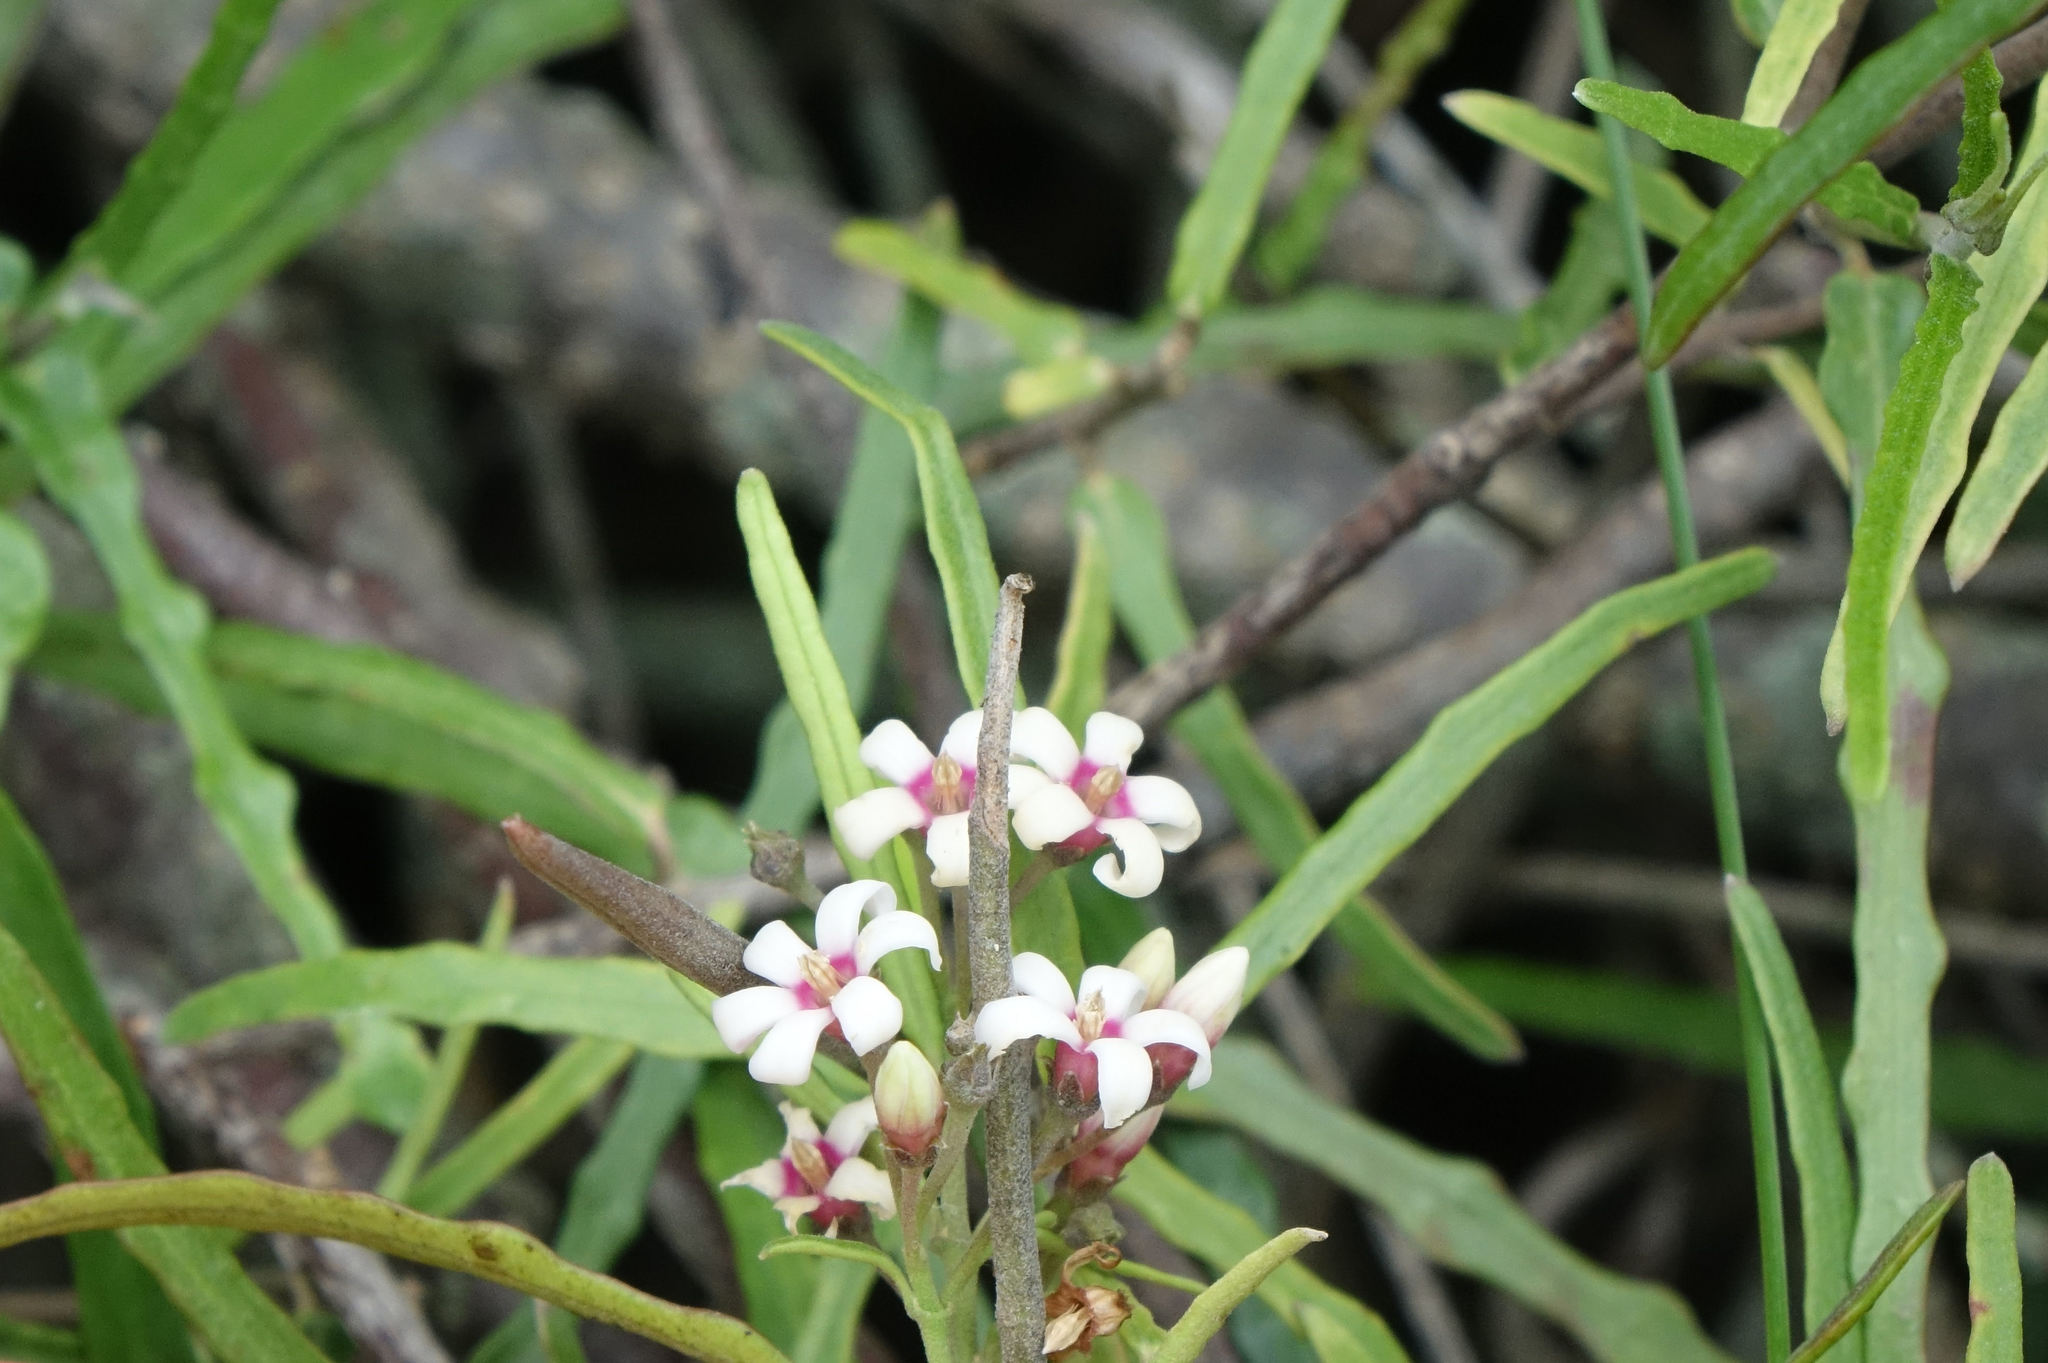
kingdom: Plantae
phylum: Tracheophyta
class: Magnoliopsida
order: Gentianales
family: Apocynaceae
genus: Parsonsia
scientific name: Parsonsia capsularis
